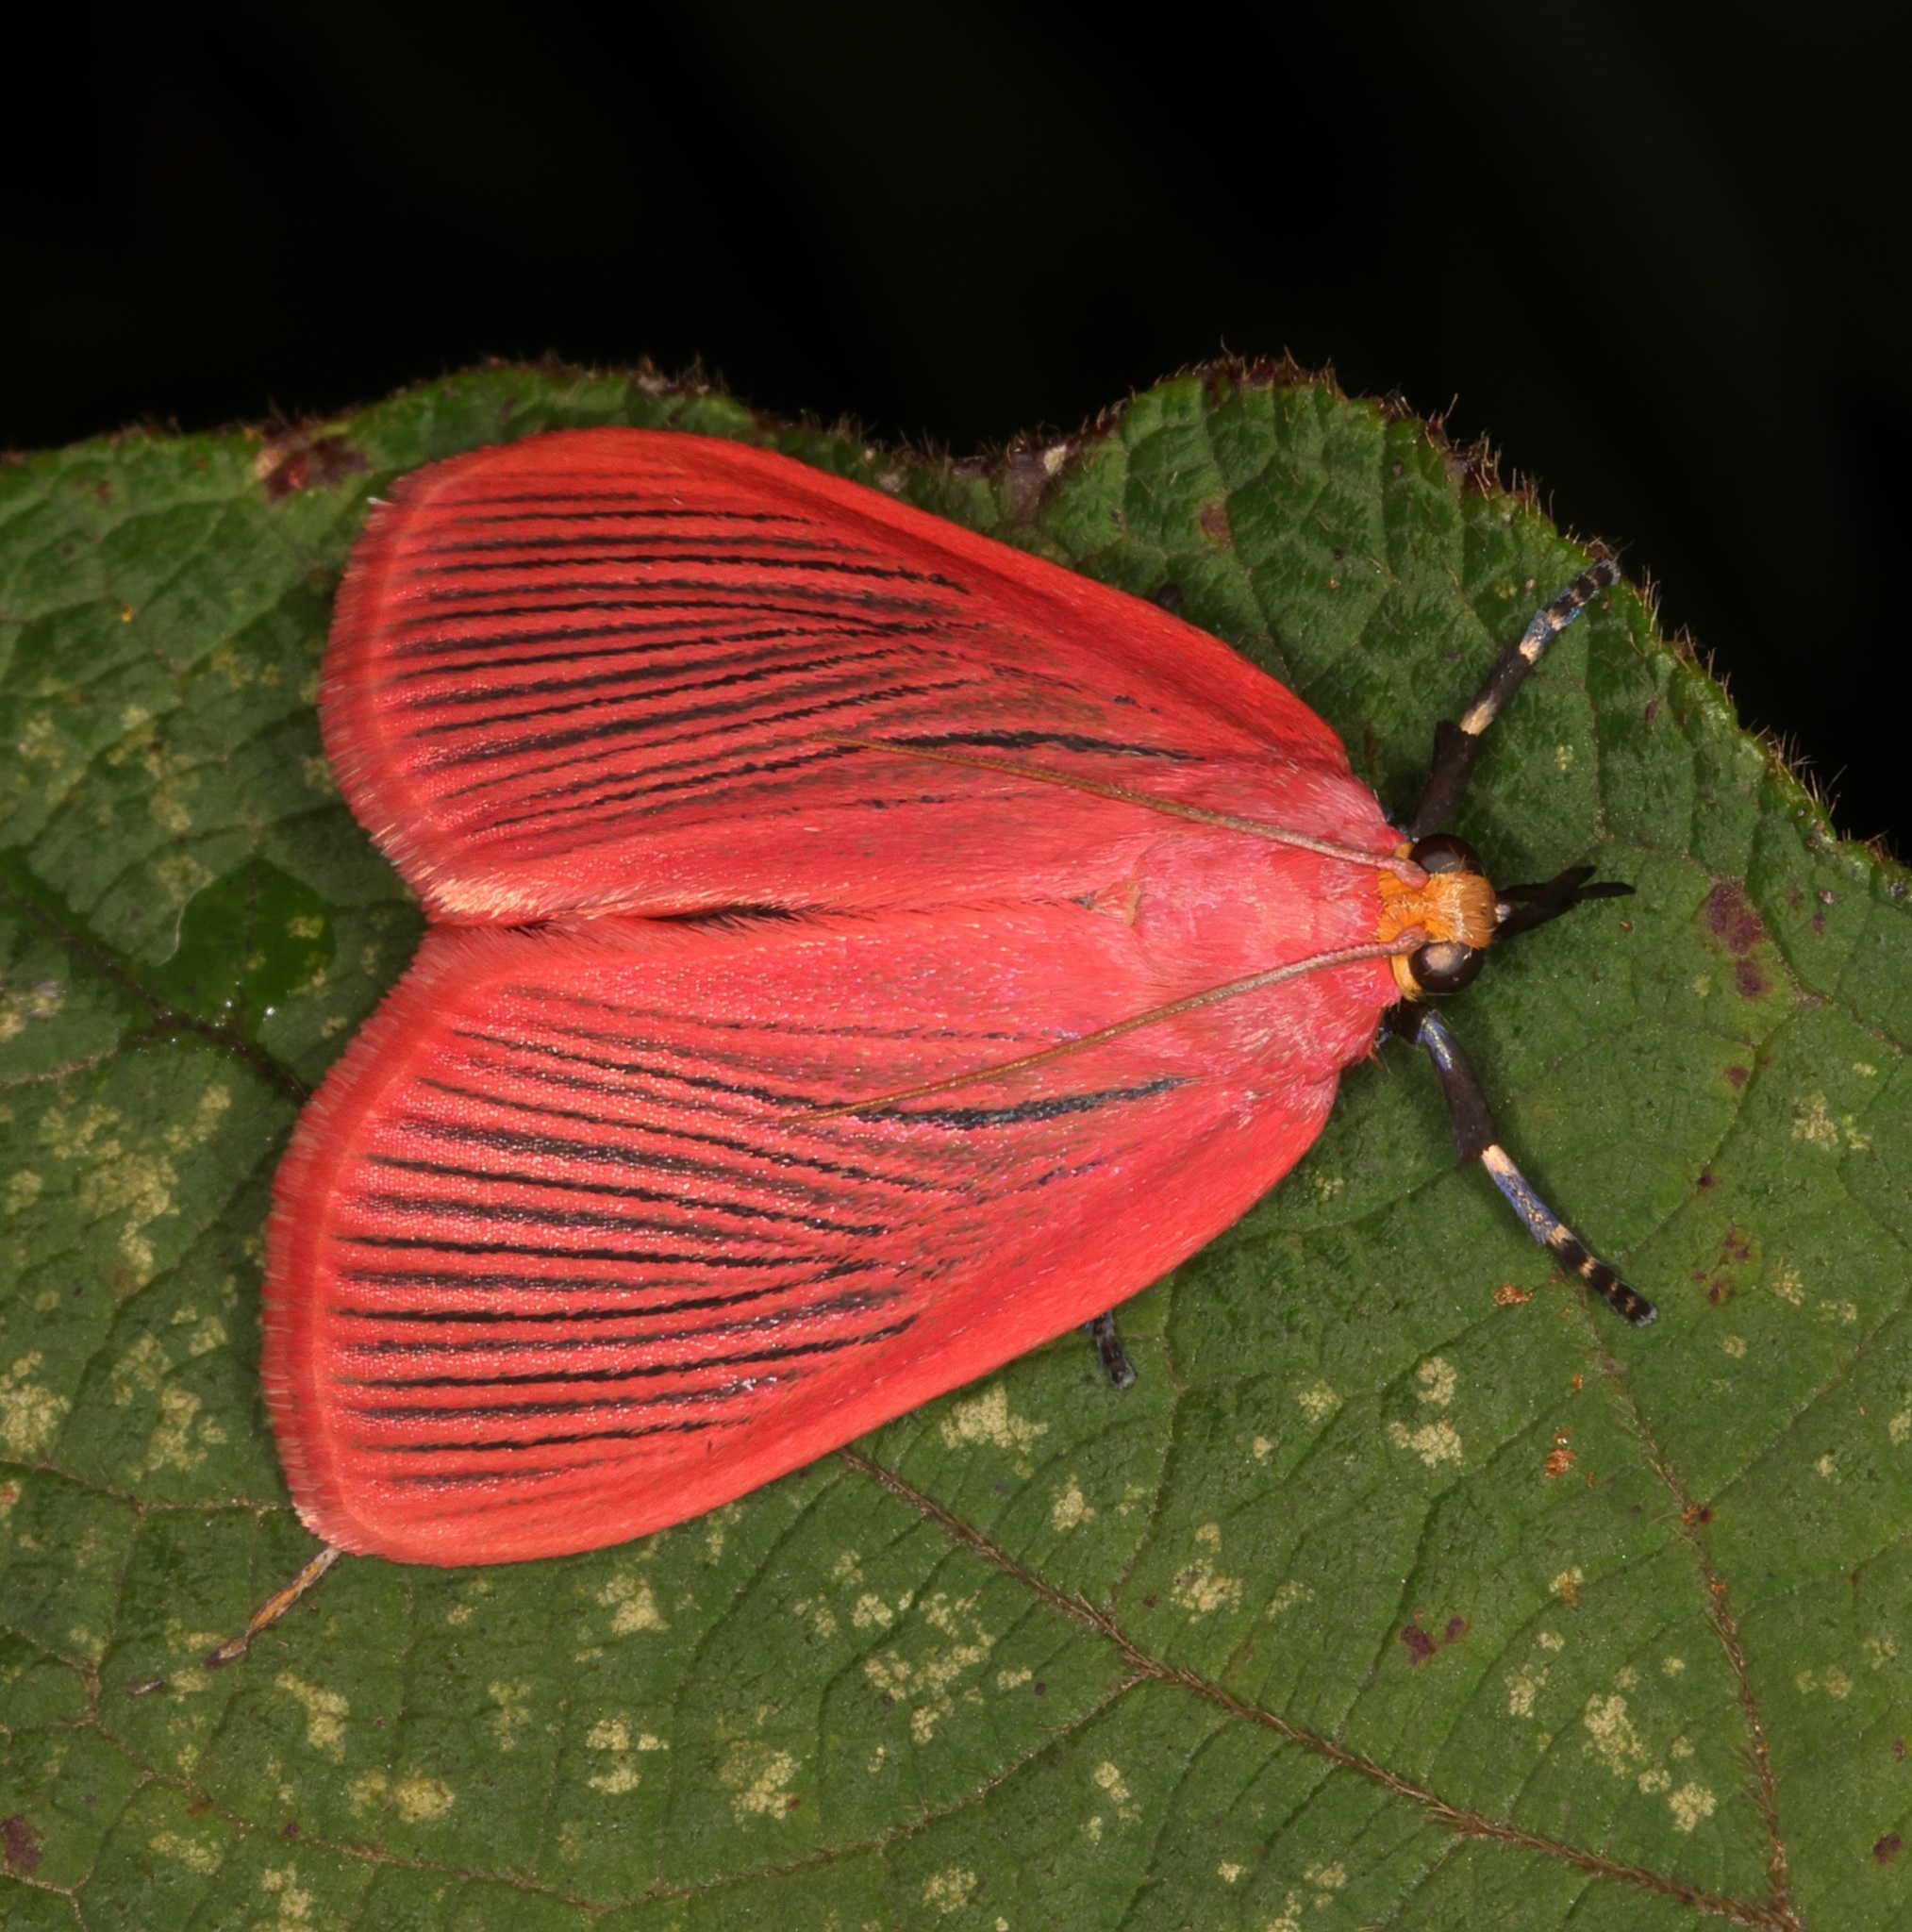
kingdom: Animalia
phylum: Arthropoda
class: Insecta
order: Lepidoptera
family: Pyralidae
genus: Arctioblepsis
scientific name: Arctioblepsis rubida
